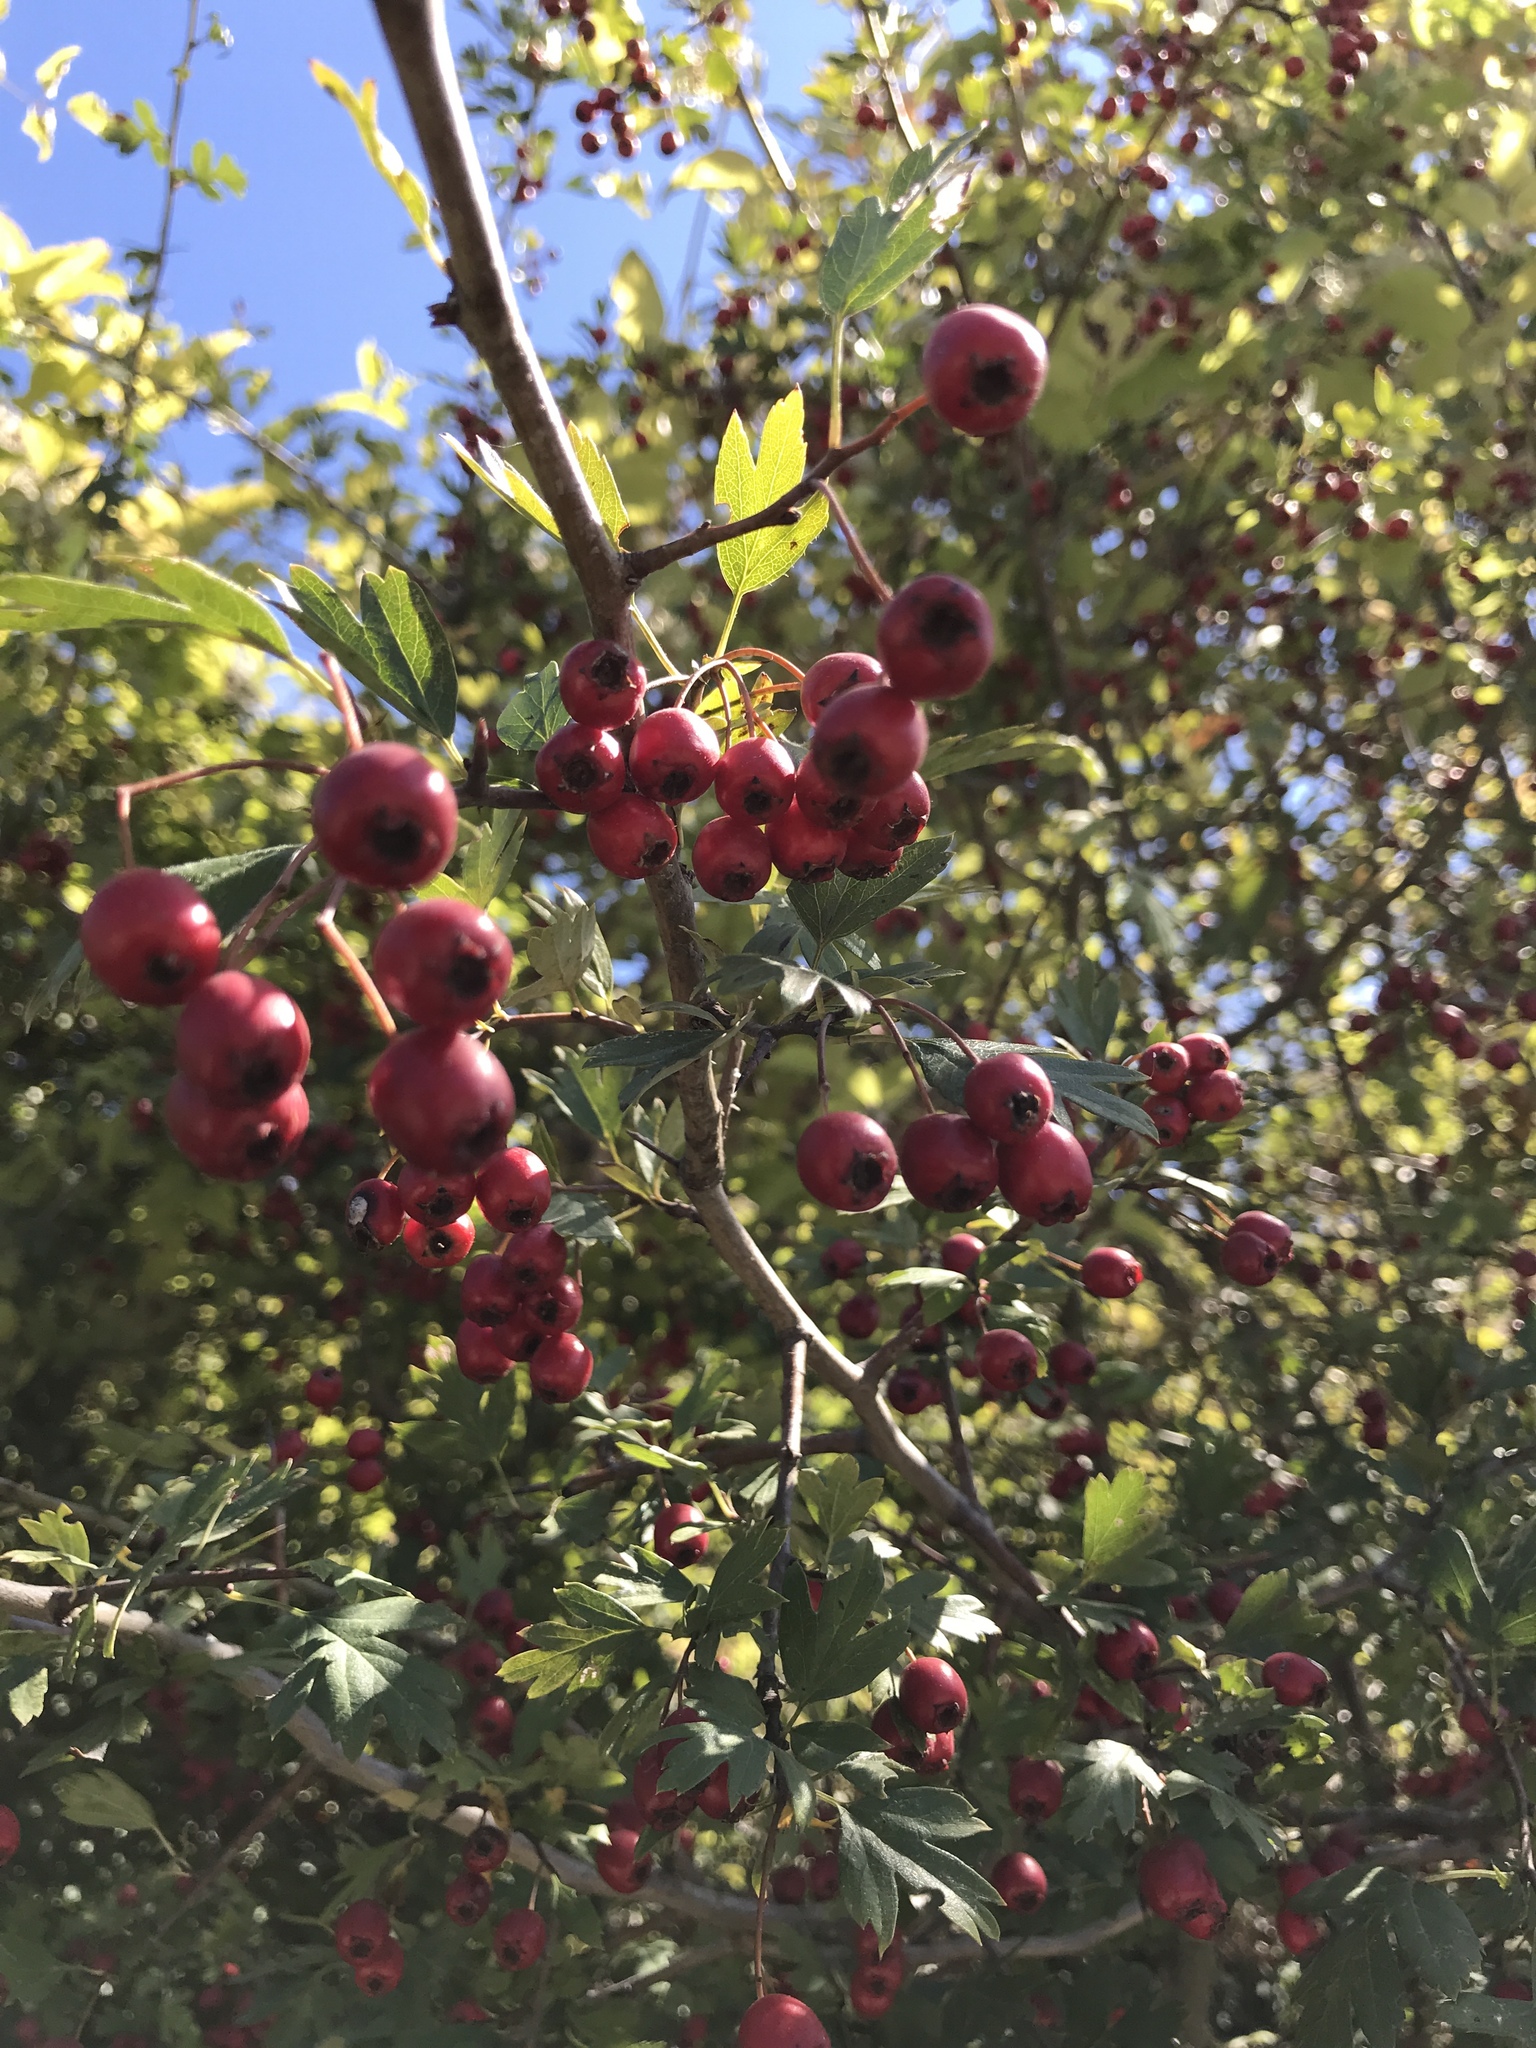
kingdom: Plantae
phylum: Tracheophyta
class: Magnoliopsida
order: Rosales
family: Rosaceae
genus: Crataegus
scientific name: Crataegus monogyna
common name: Hawthorn
